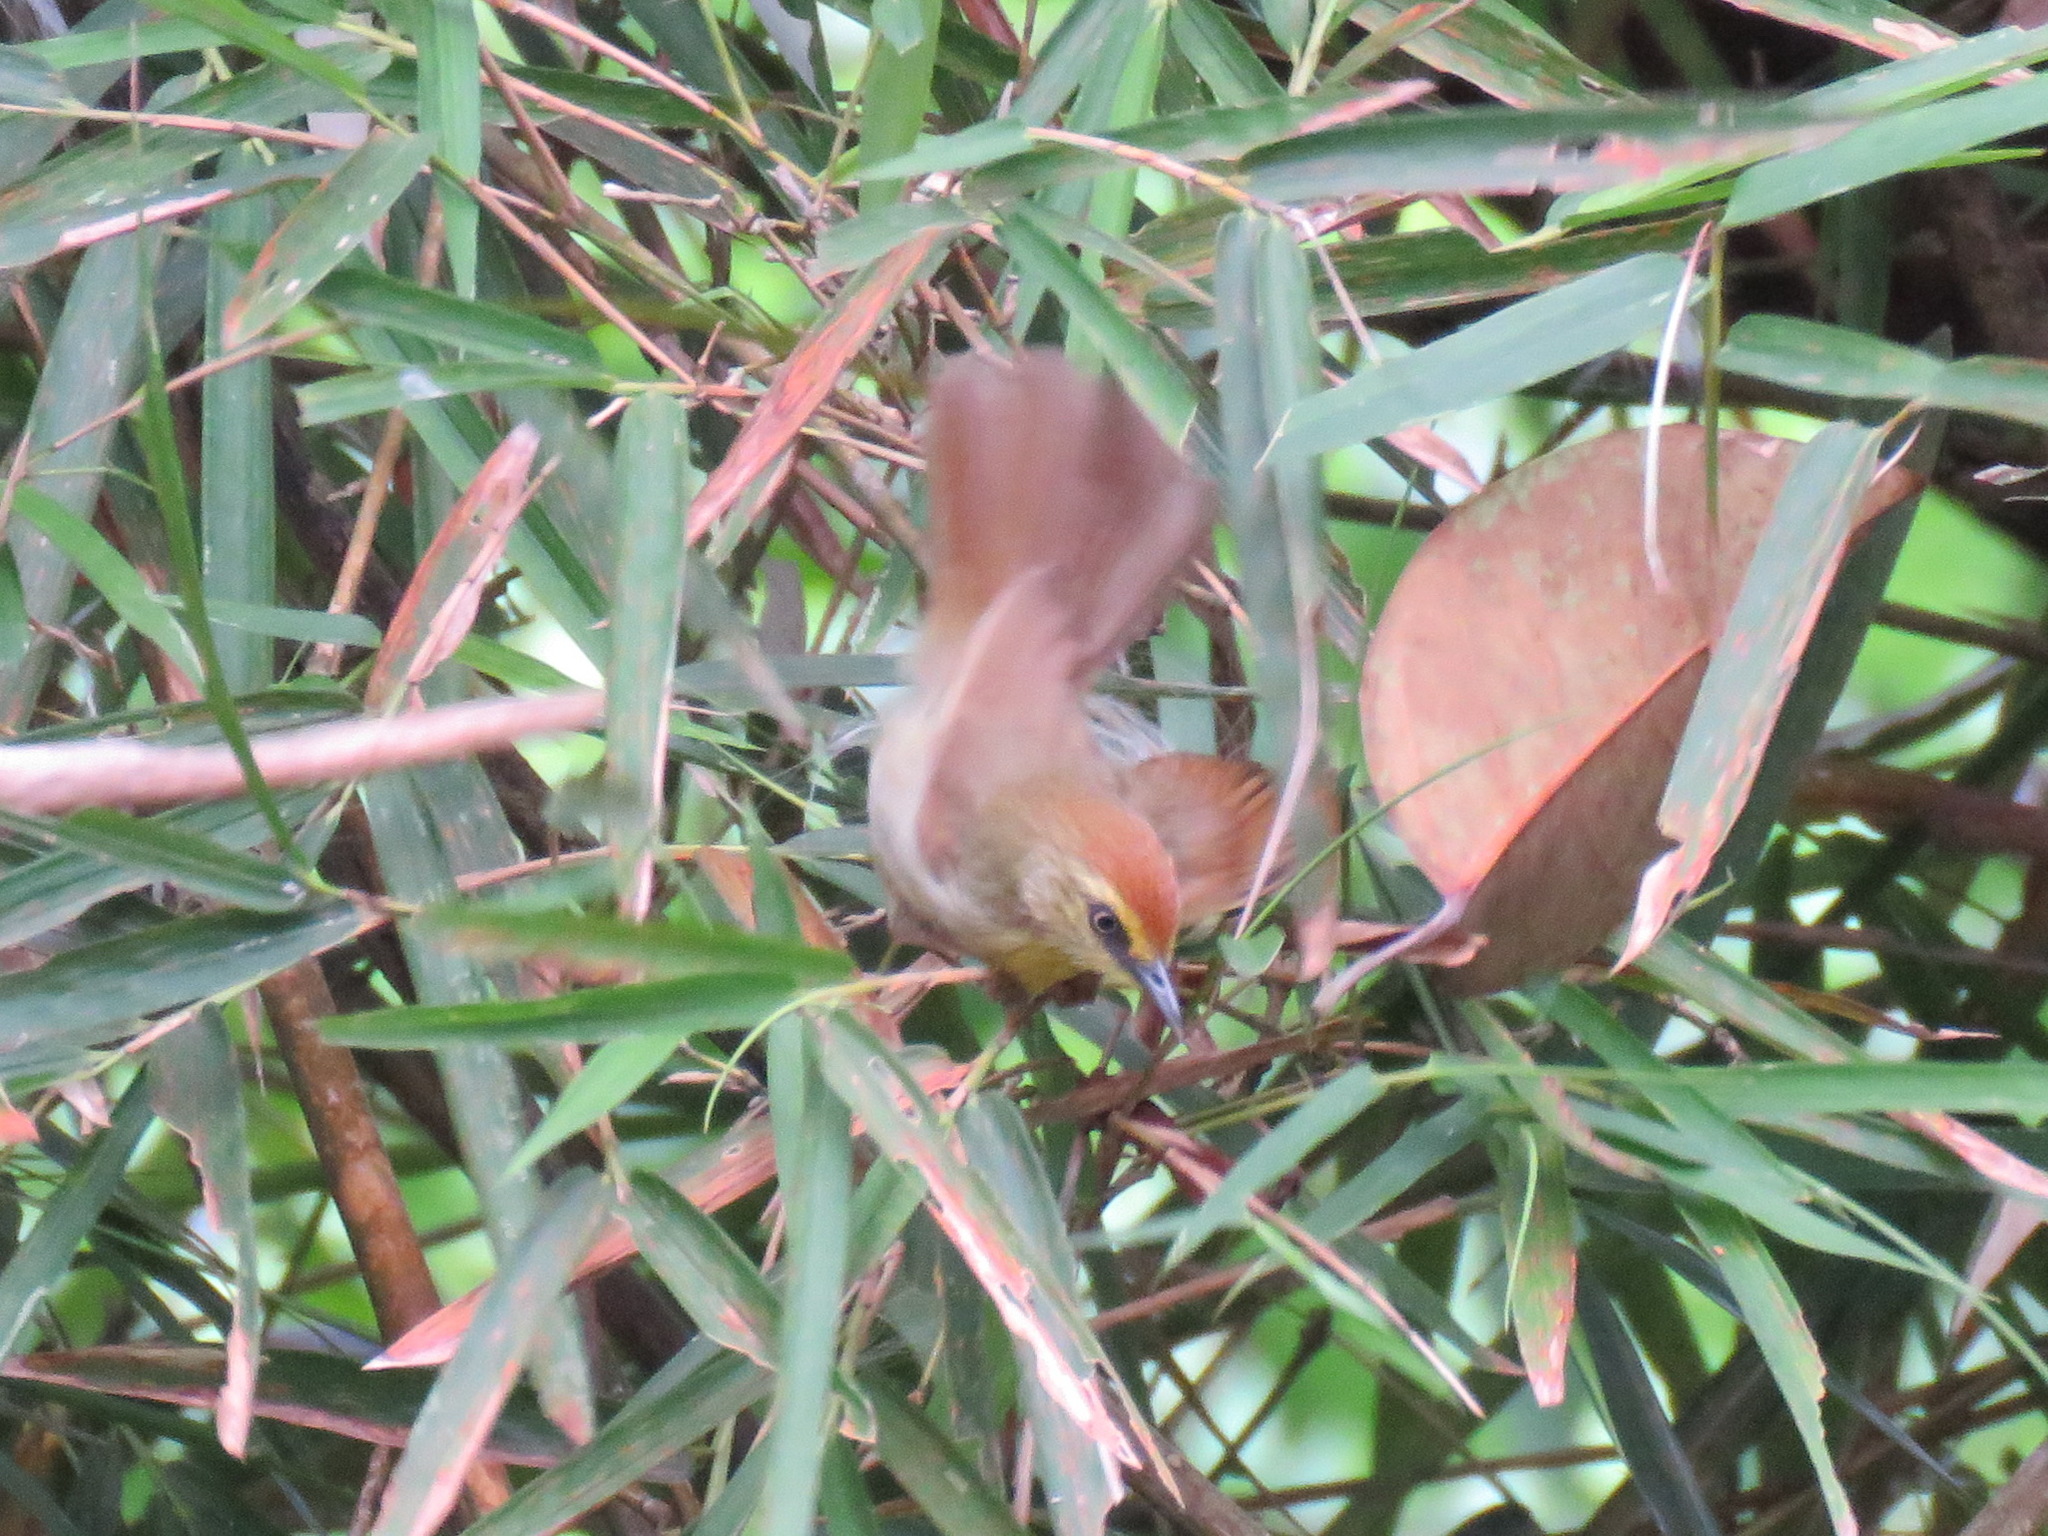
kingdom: Animalia
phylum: Chordata
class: Aves
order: Passeriformes
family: Timaliidae
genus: Macronus
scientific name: Macronus gularis
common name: Striped tit-babbler
